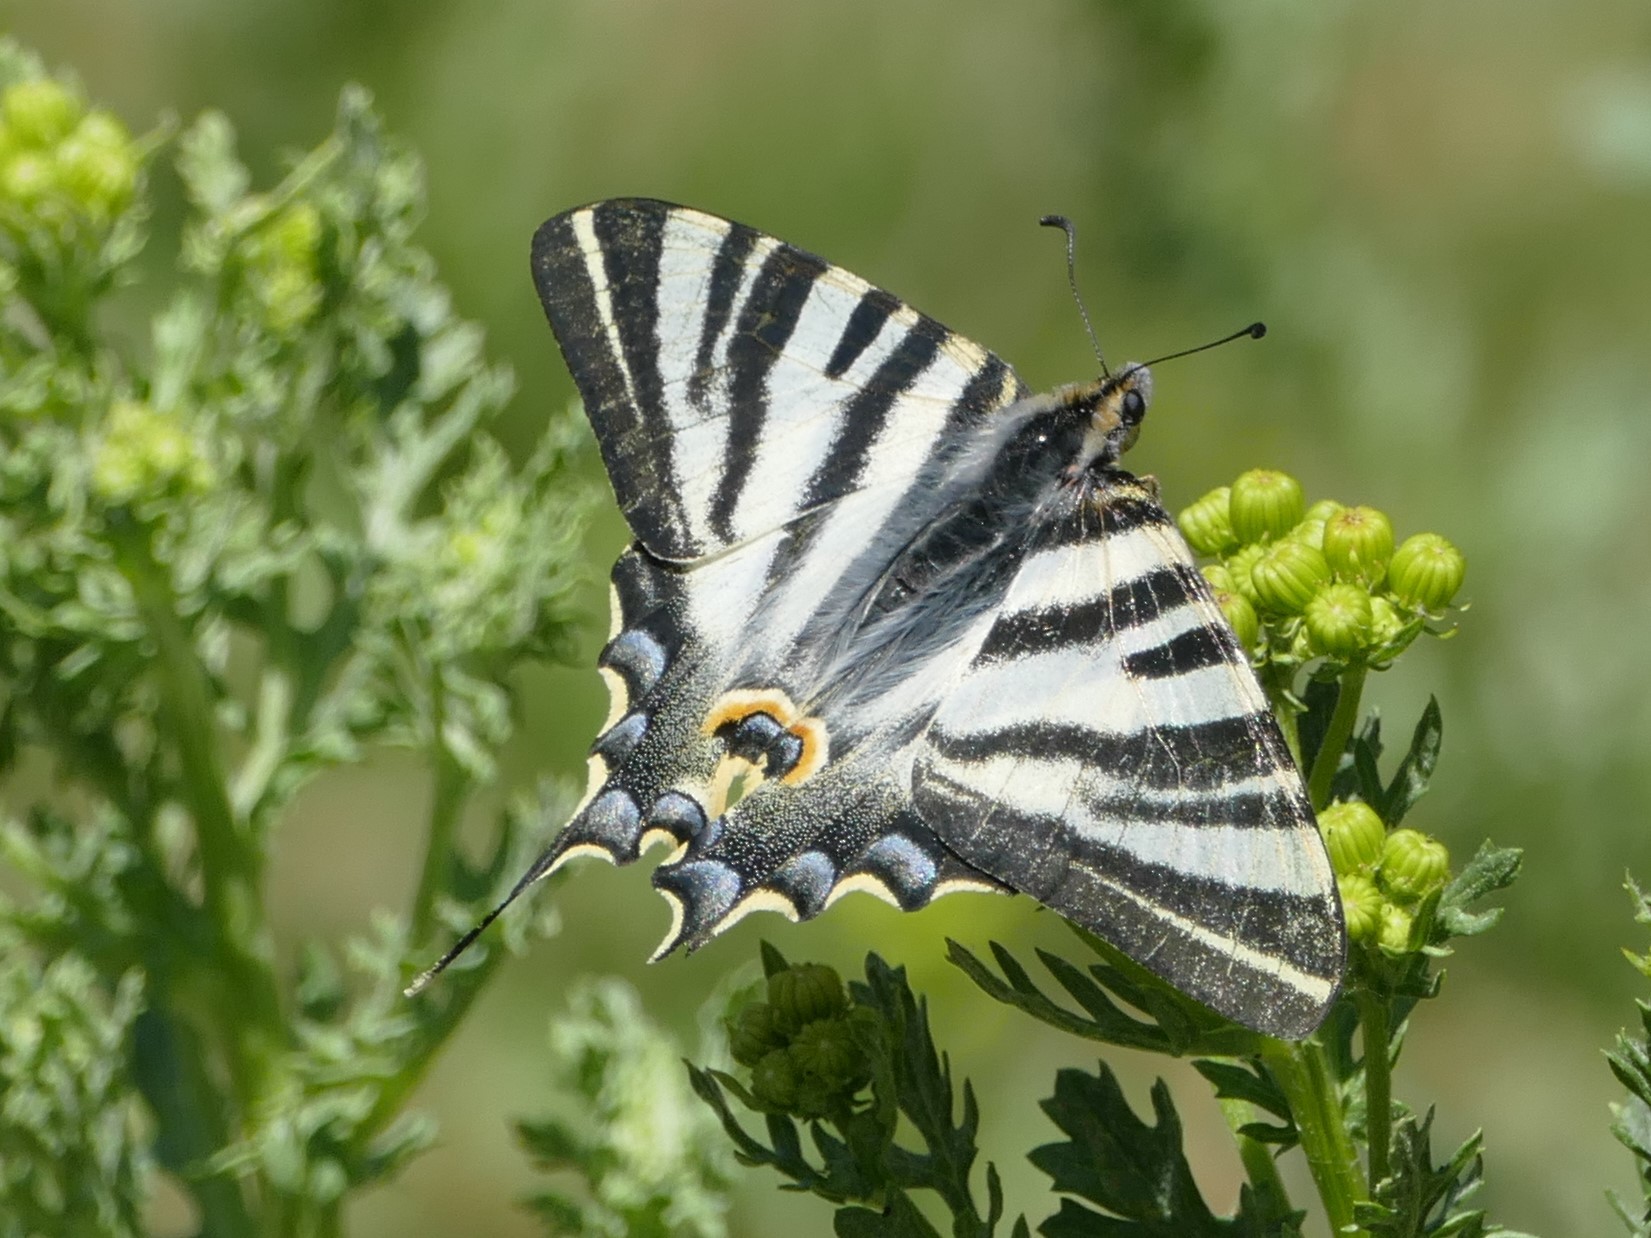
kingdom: Animalia
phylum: Arthropoda
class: Insecta
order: Lepidoptera
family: Papilionidae
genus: Iphiclides
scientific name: Iphiclides feisthamelii
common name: Iberian scarce swallowtail
